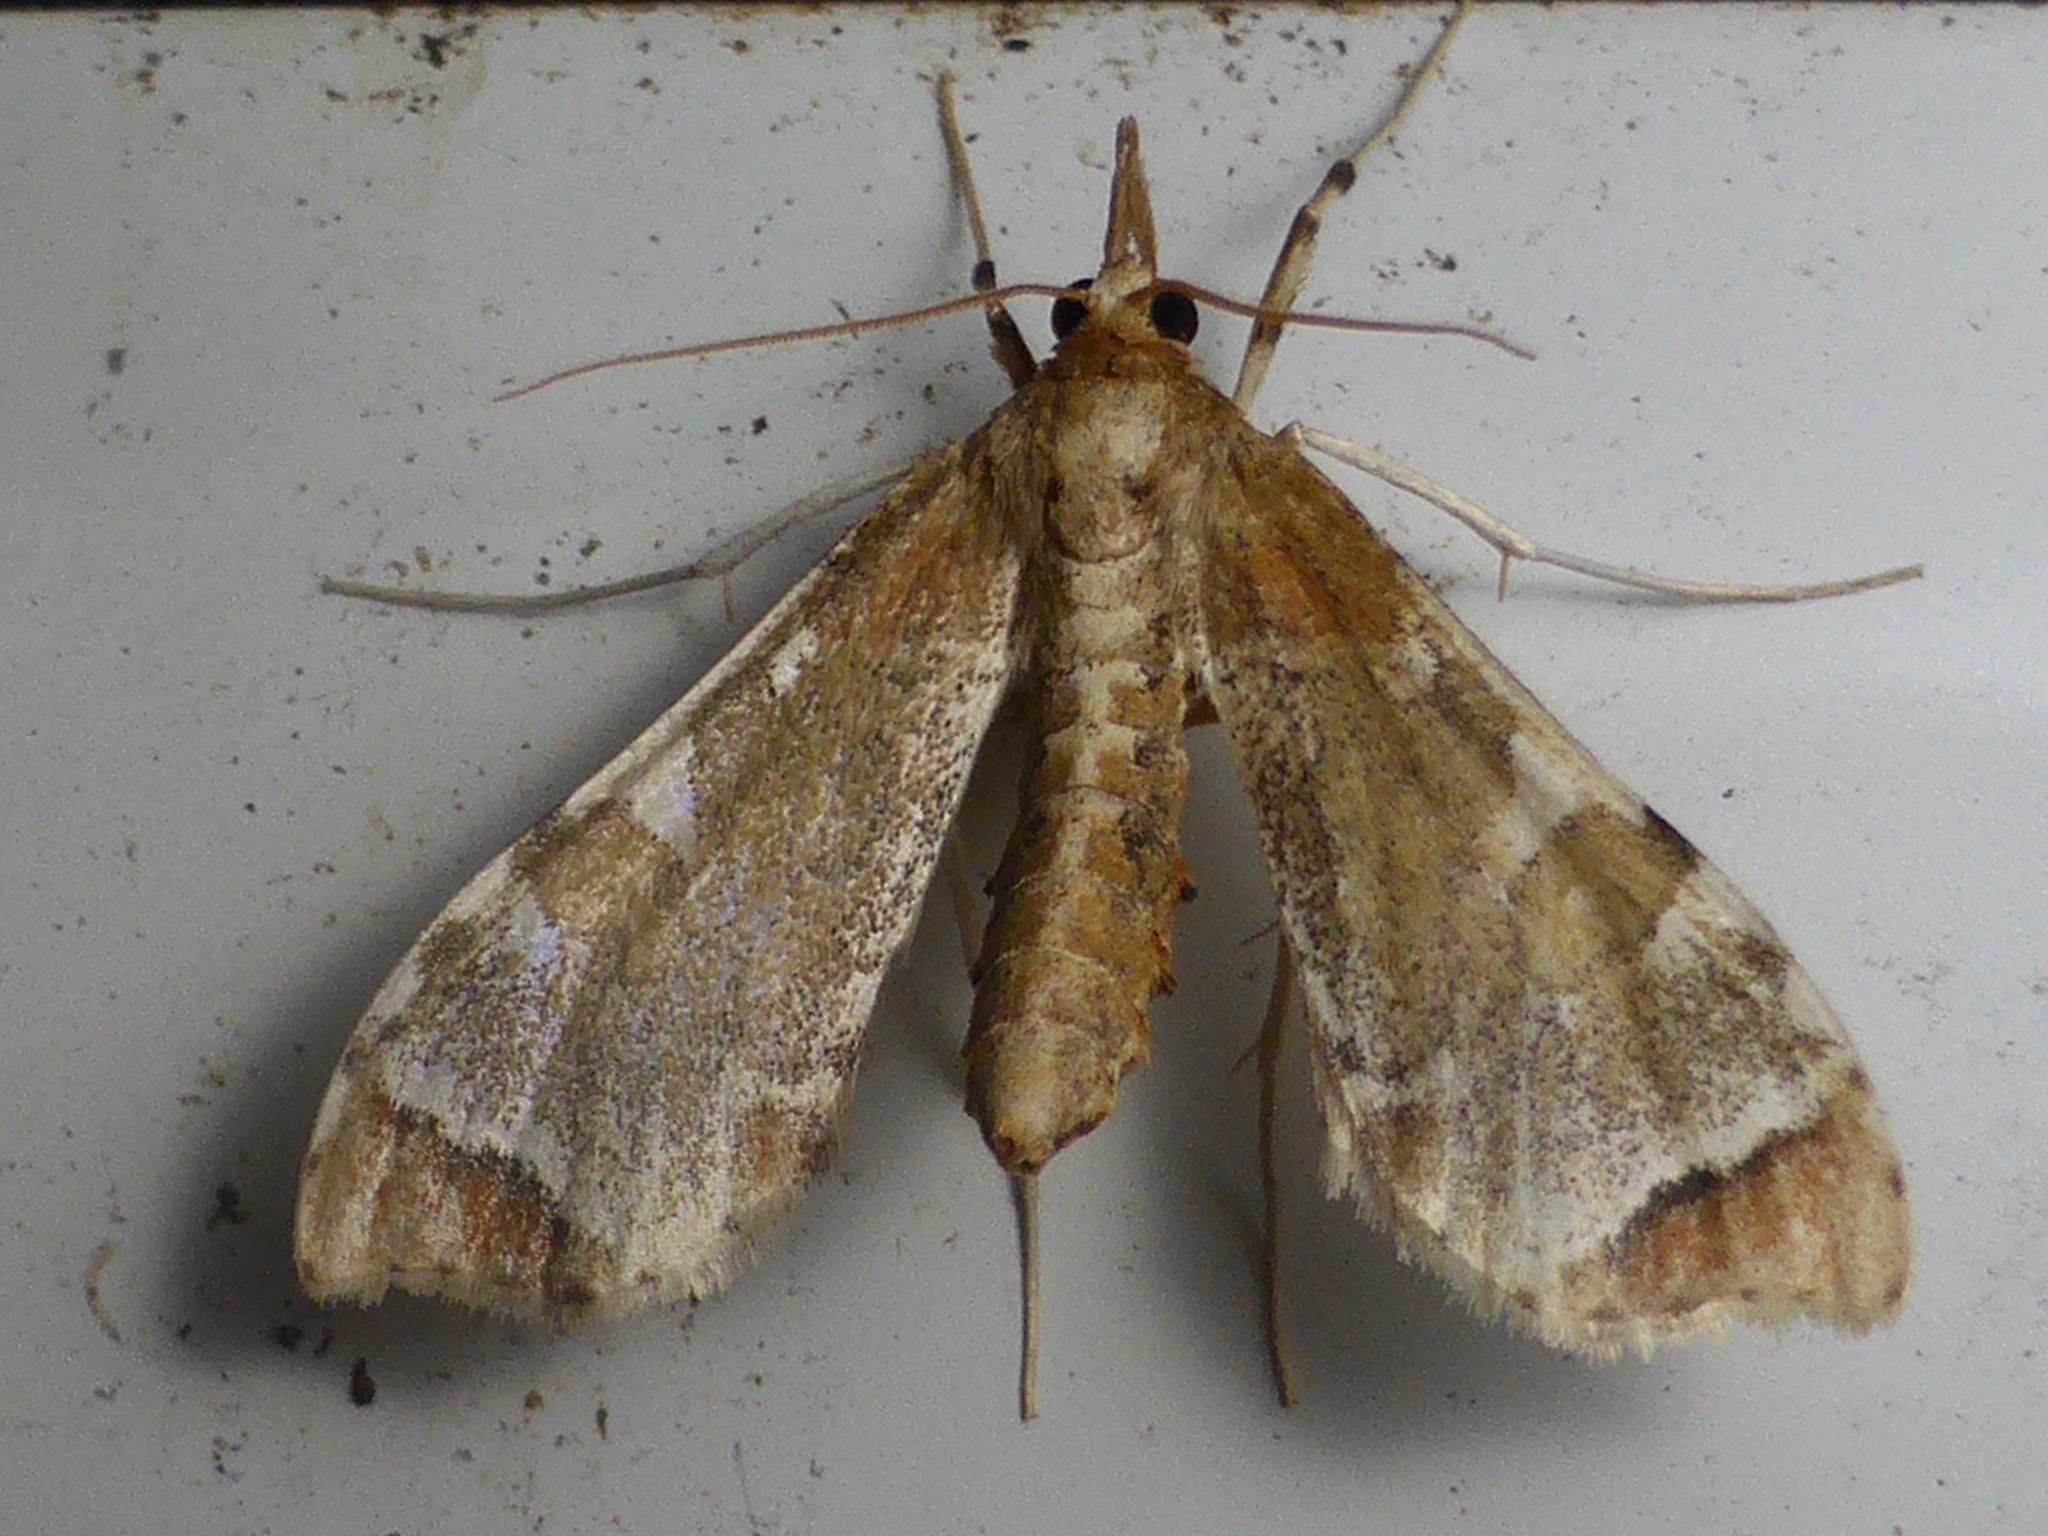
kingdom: Animalia
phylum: Arthropoda
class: Insecta
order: Lepidoptera
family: Crambidae
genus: Sceliodes
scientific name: Sceliodes cordalis
